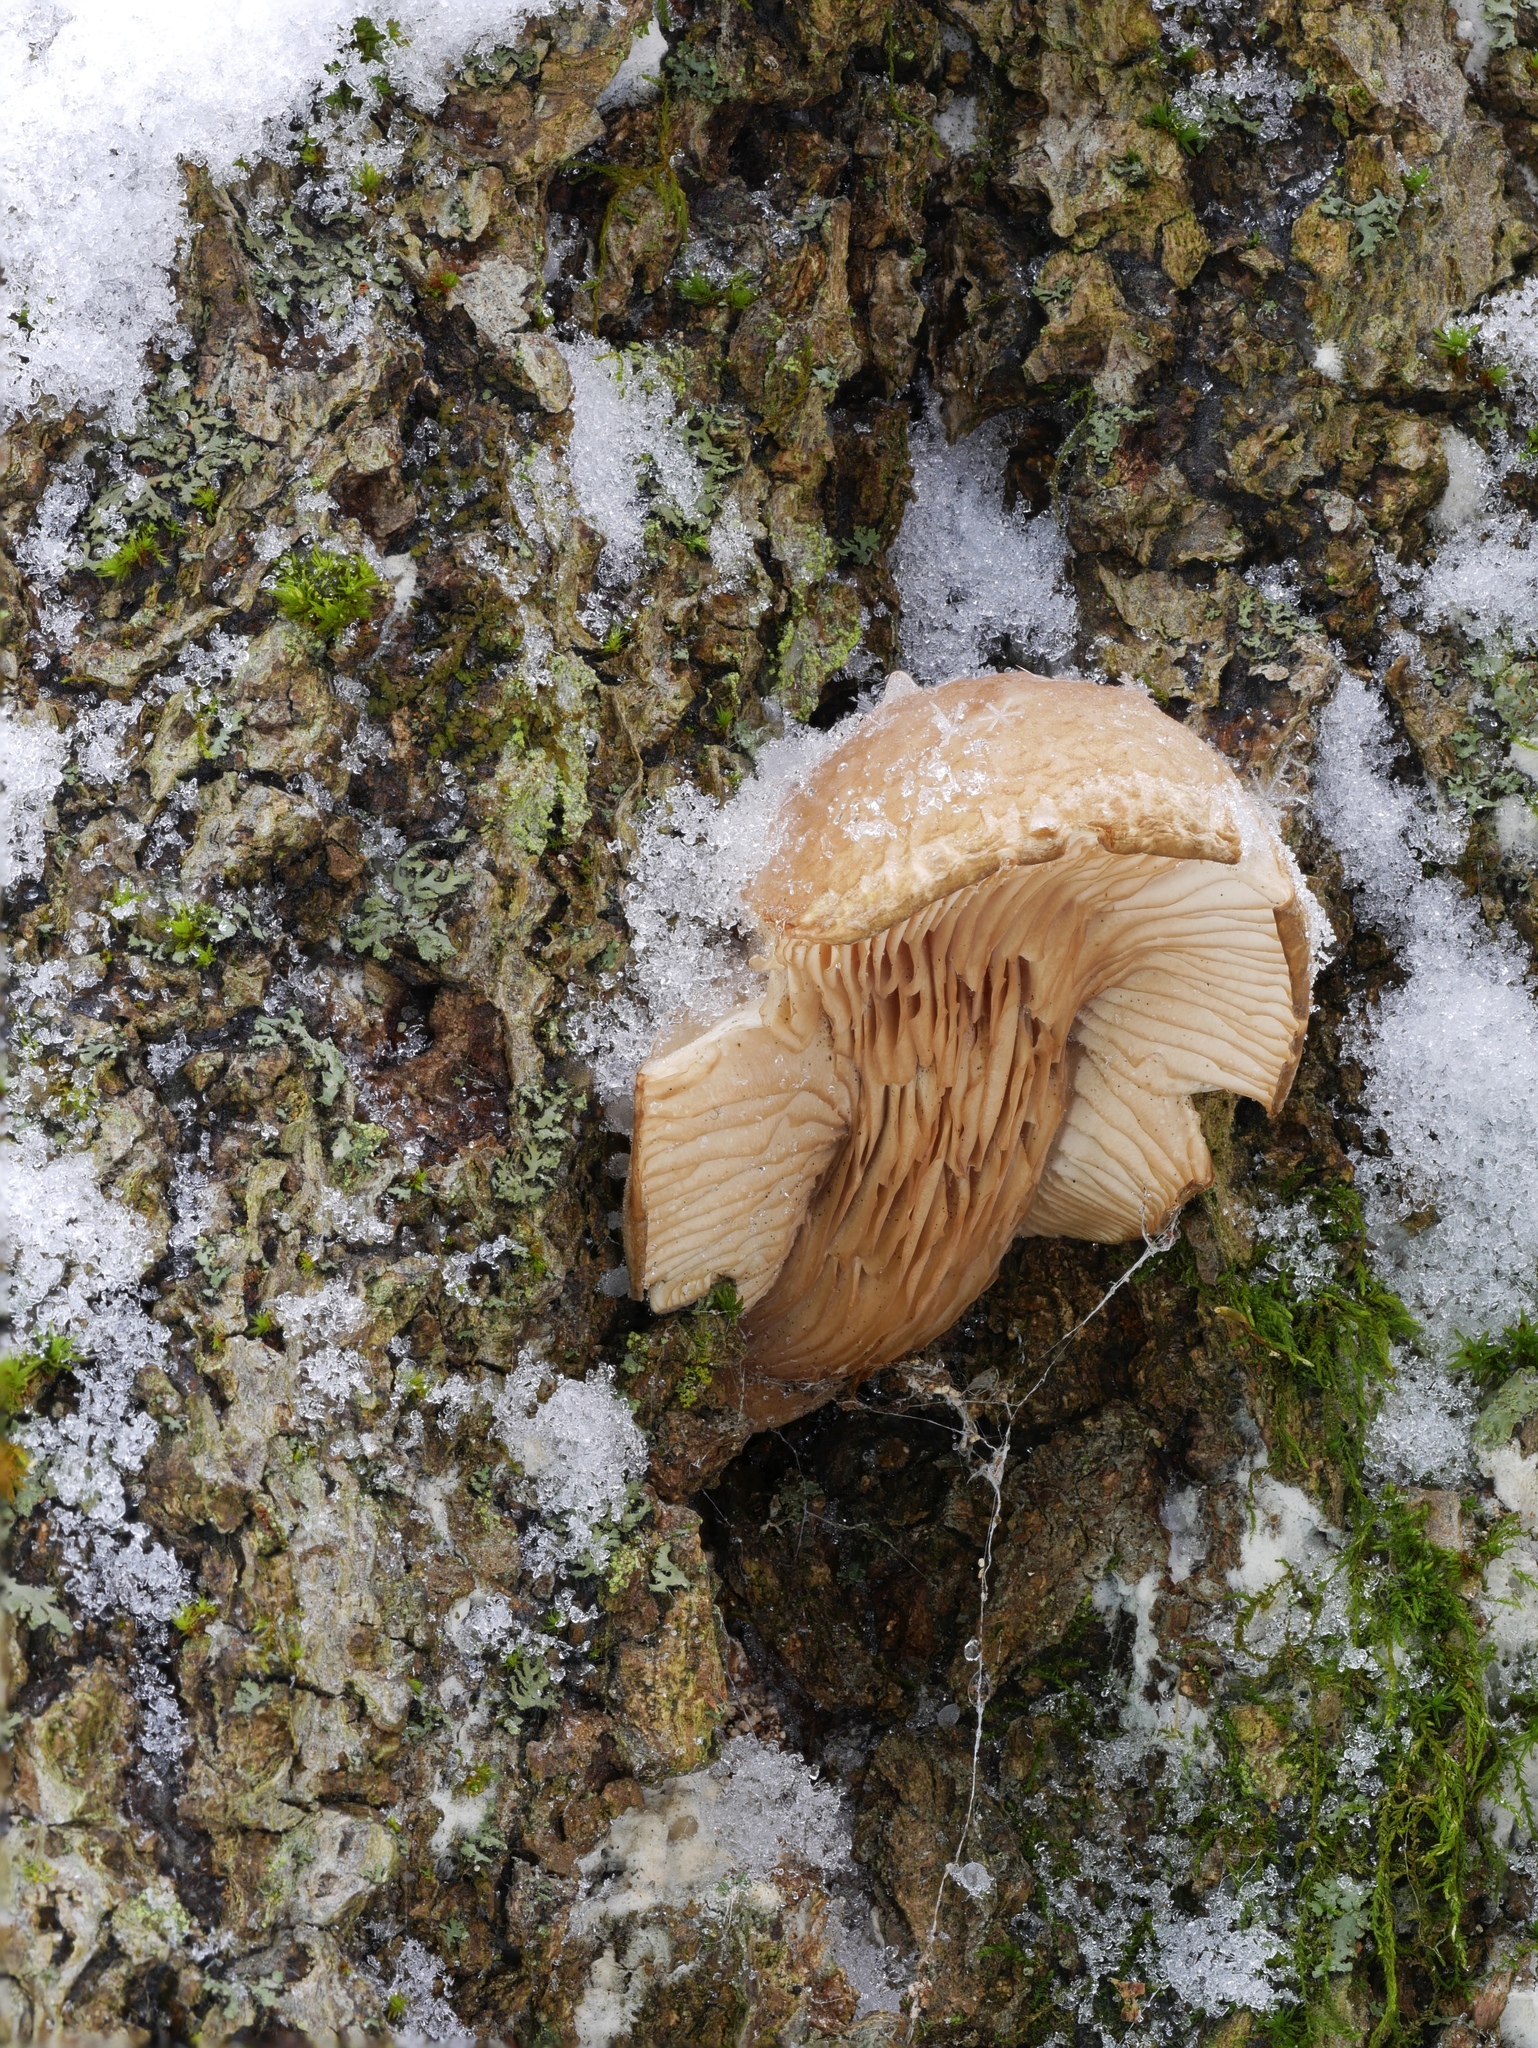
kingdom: Fungi
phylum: Basidiomycota
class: Agaricomycetes
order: Agaricales
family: Sarcomyxaceae
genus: Sarcomyxa
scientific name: Sarcomyxa serotina
